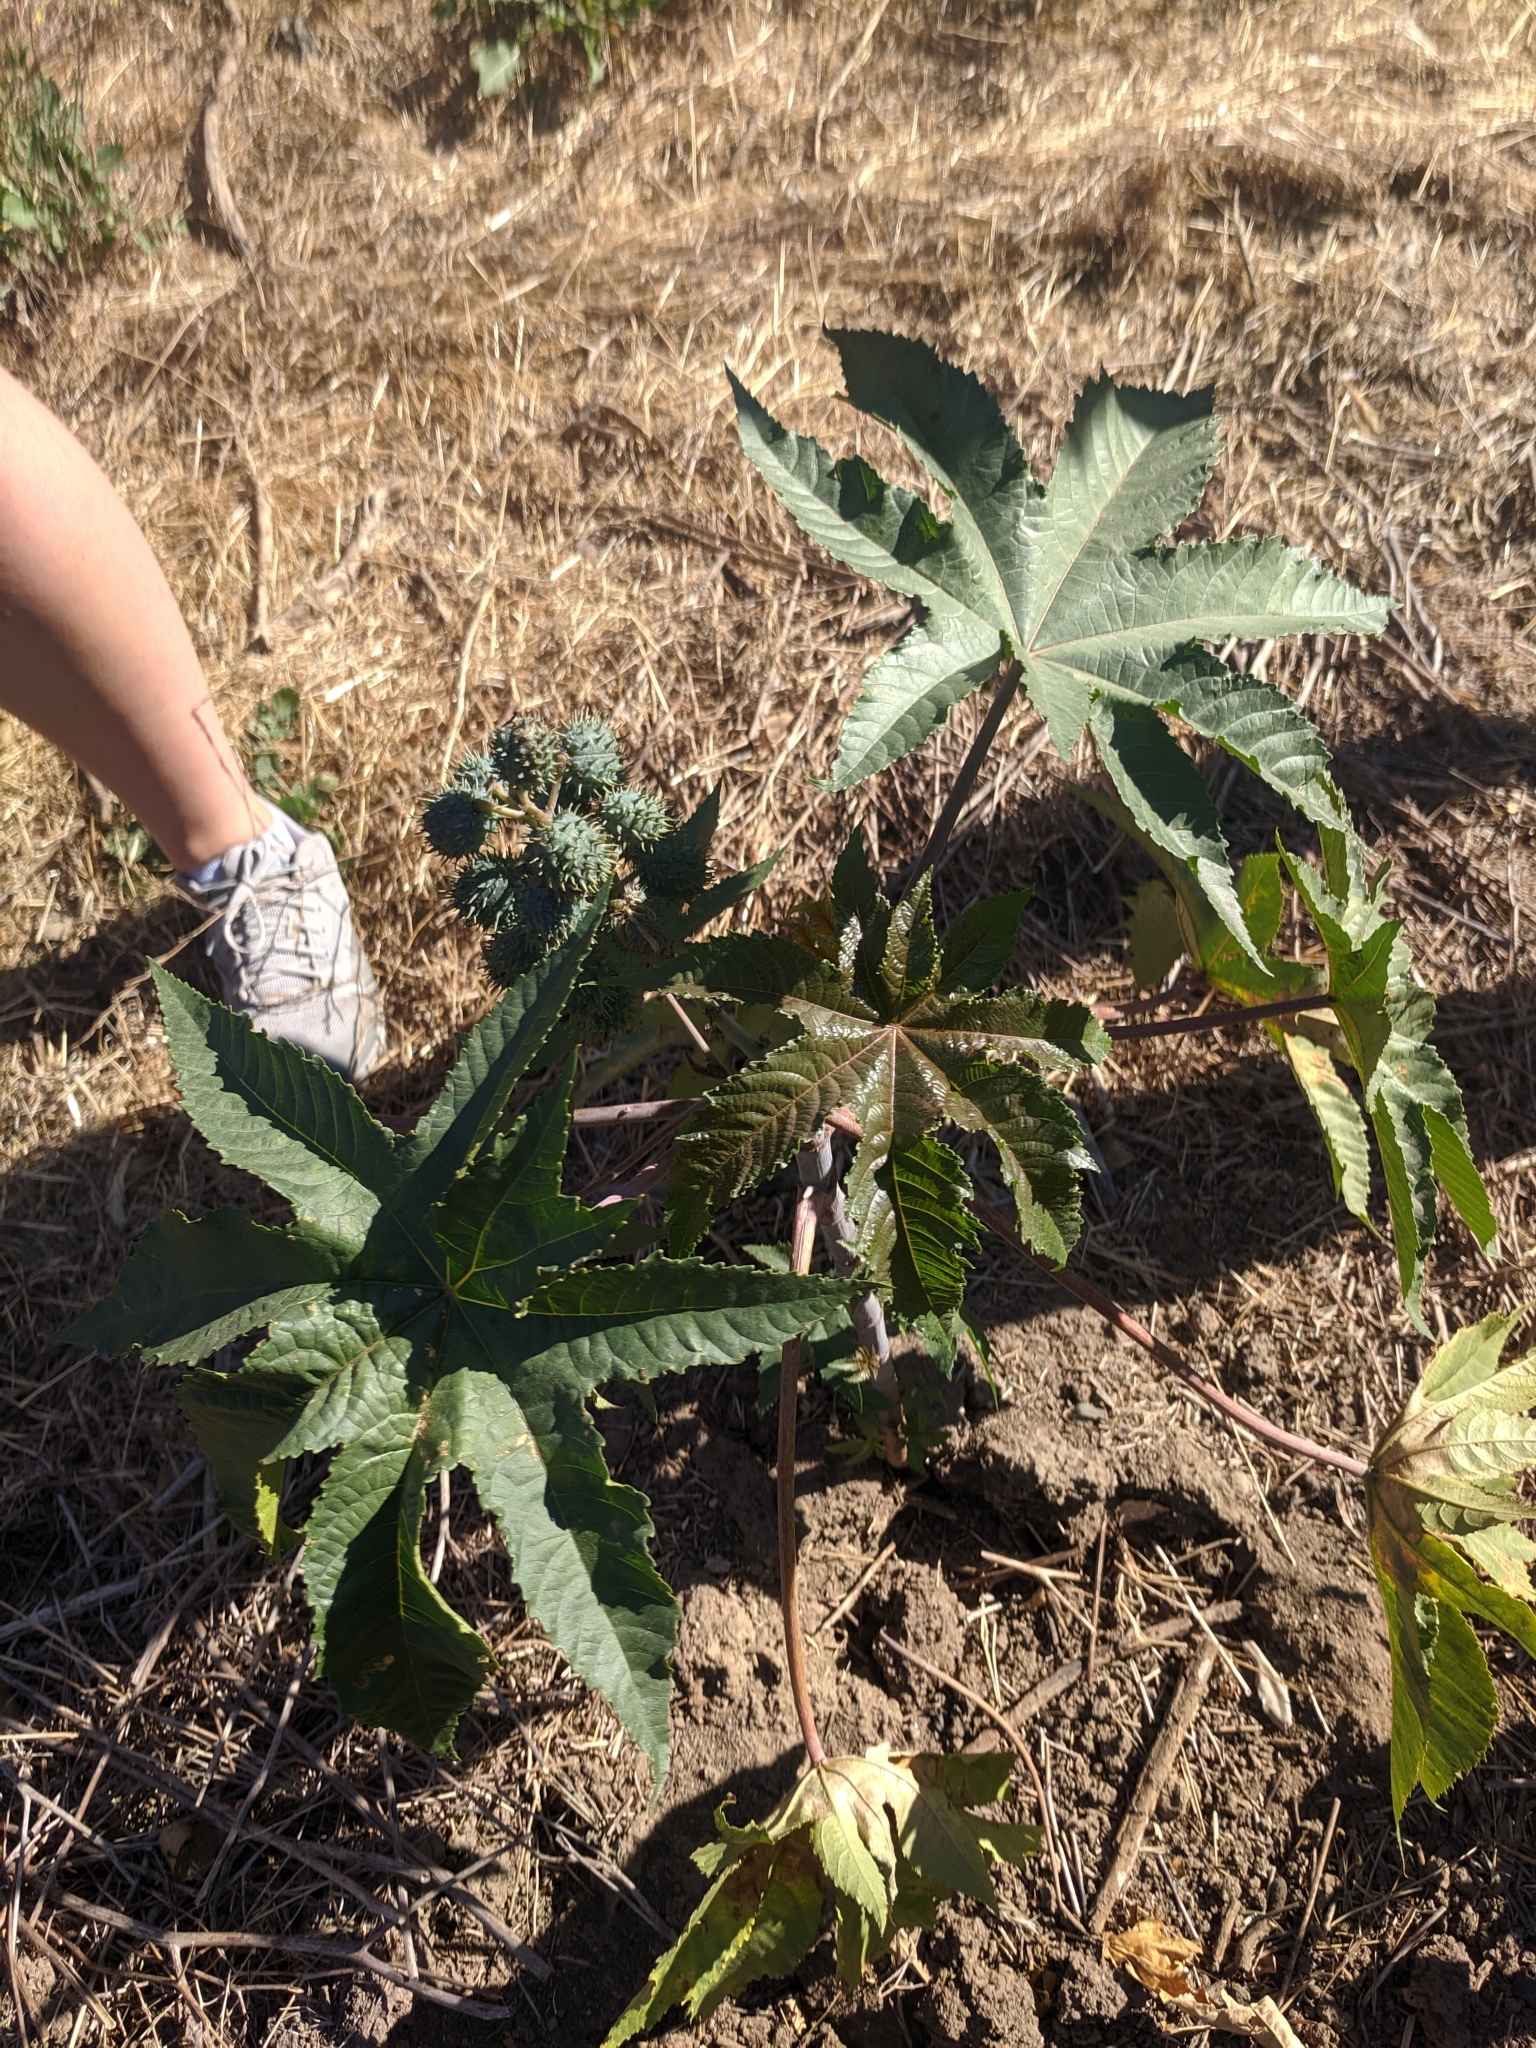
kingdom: Plantae
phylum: Tracheophyta
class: Magnoliopsida
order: Malpighiales
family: Euphorbiaceae
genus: Ricinus
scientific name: Ricinus communis
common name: Castor-oil-plant
